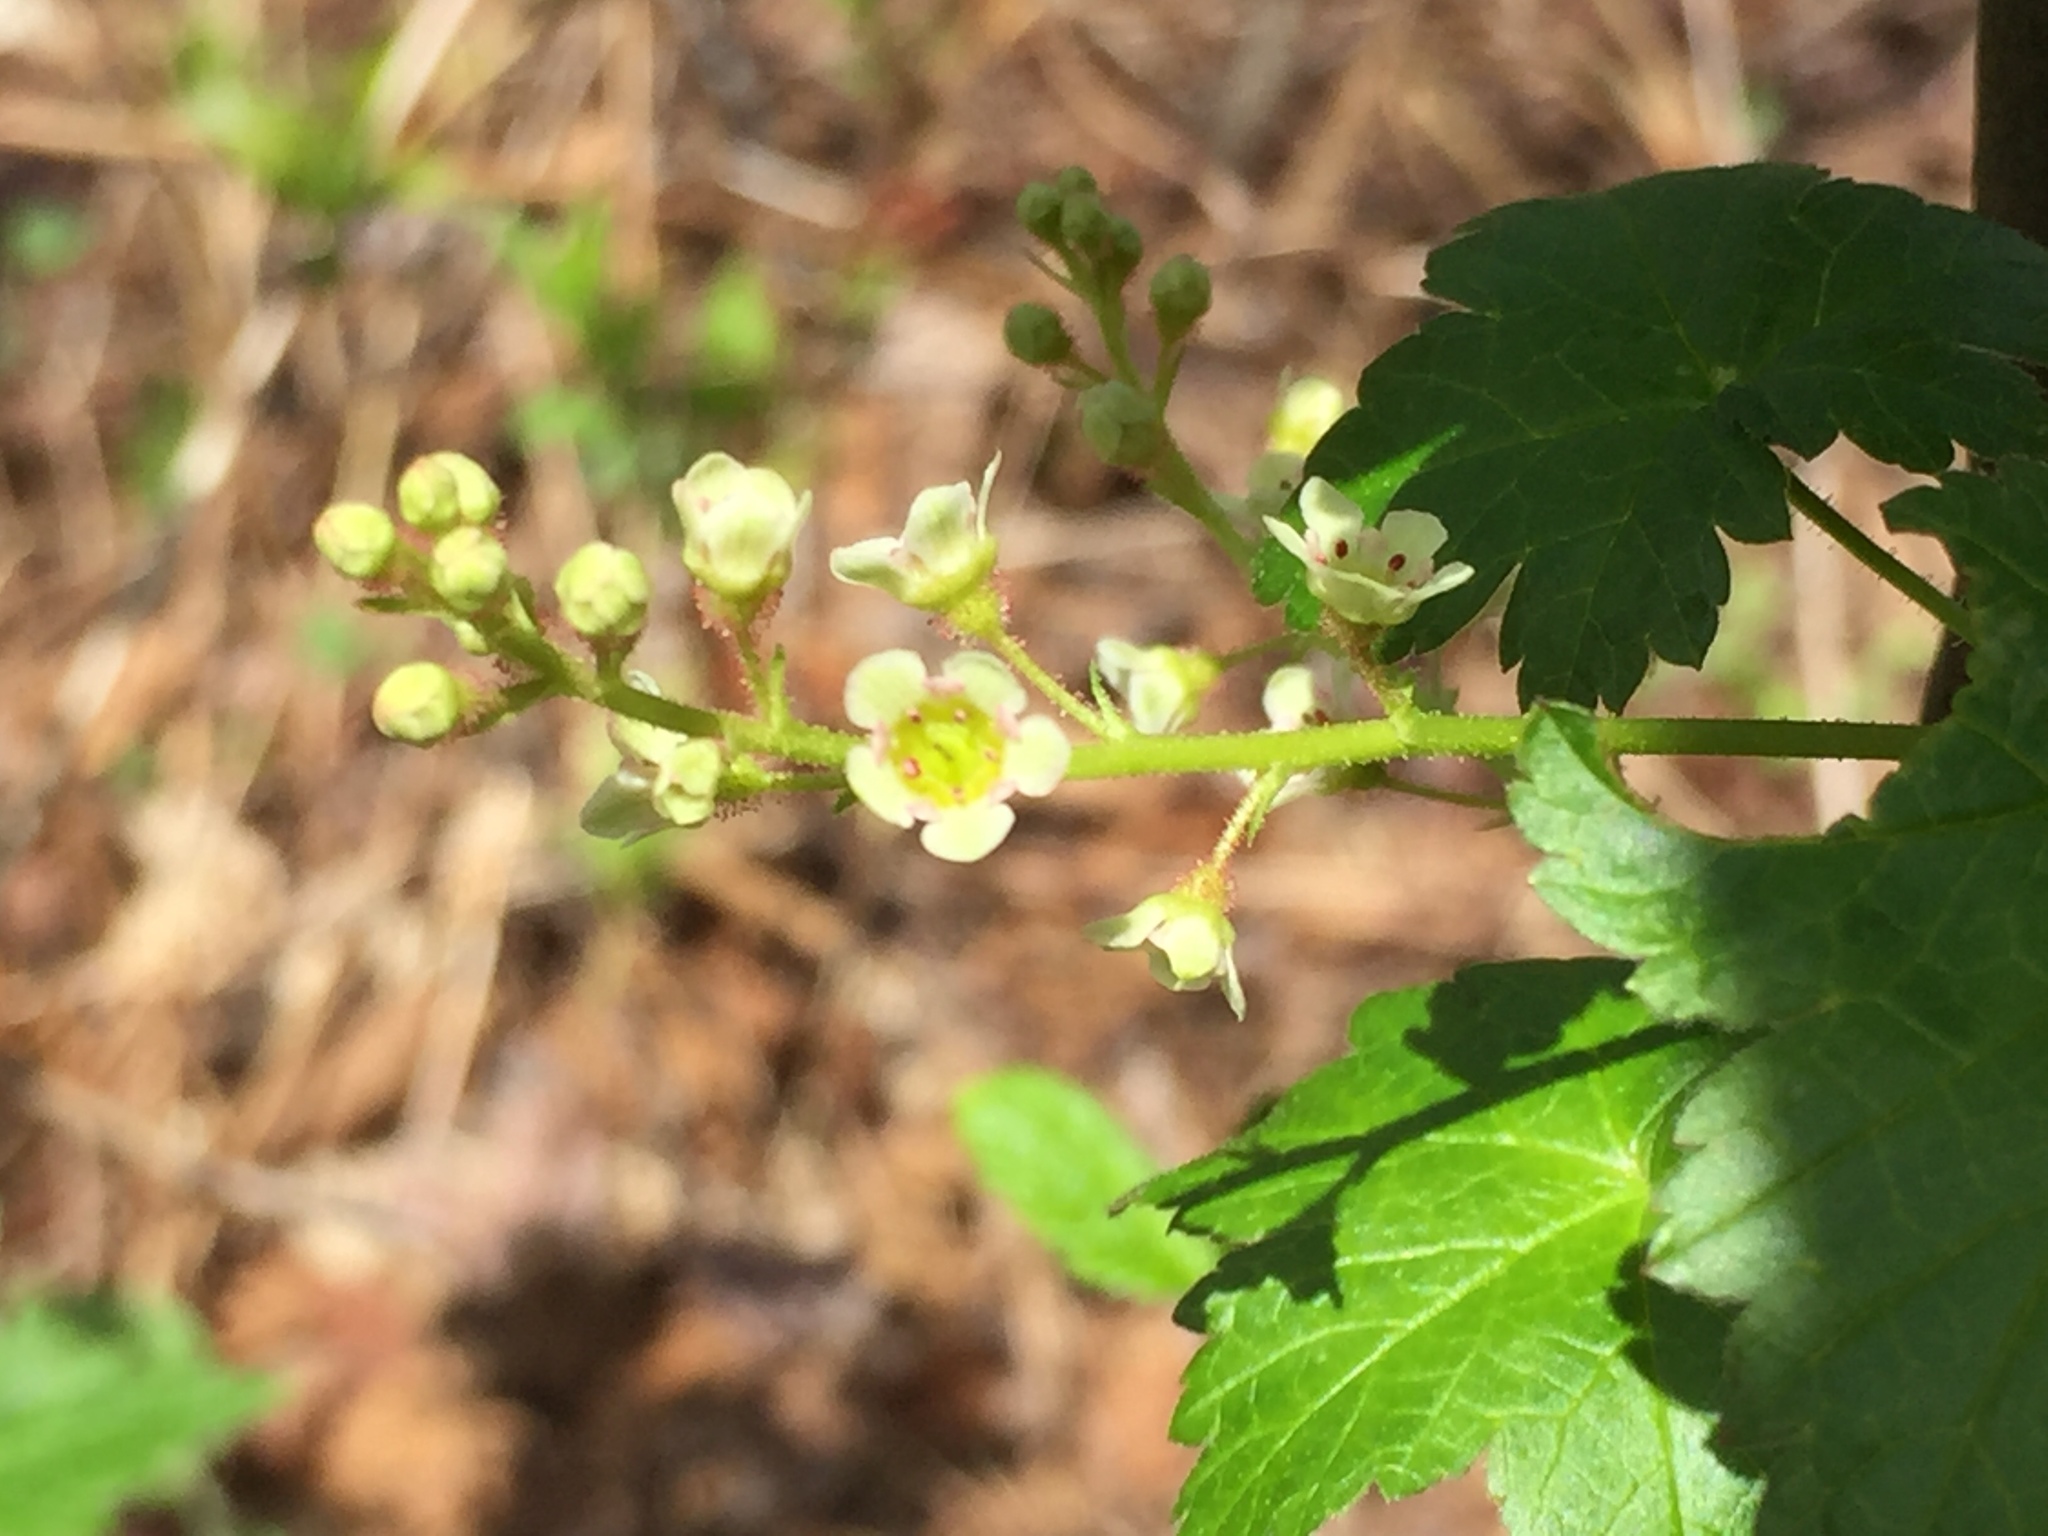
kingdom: Plantae
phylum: Tracheophyta
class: Magnoliopsida
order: Saxifragales
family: Grossulariaceae
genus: Ribes
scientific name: Ribes glandulosum
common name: Skunk currant
